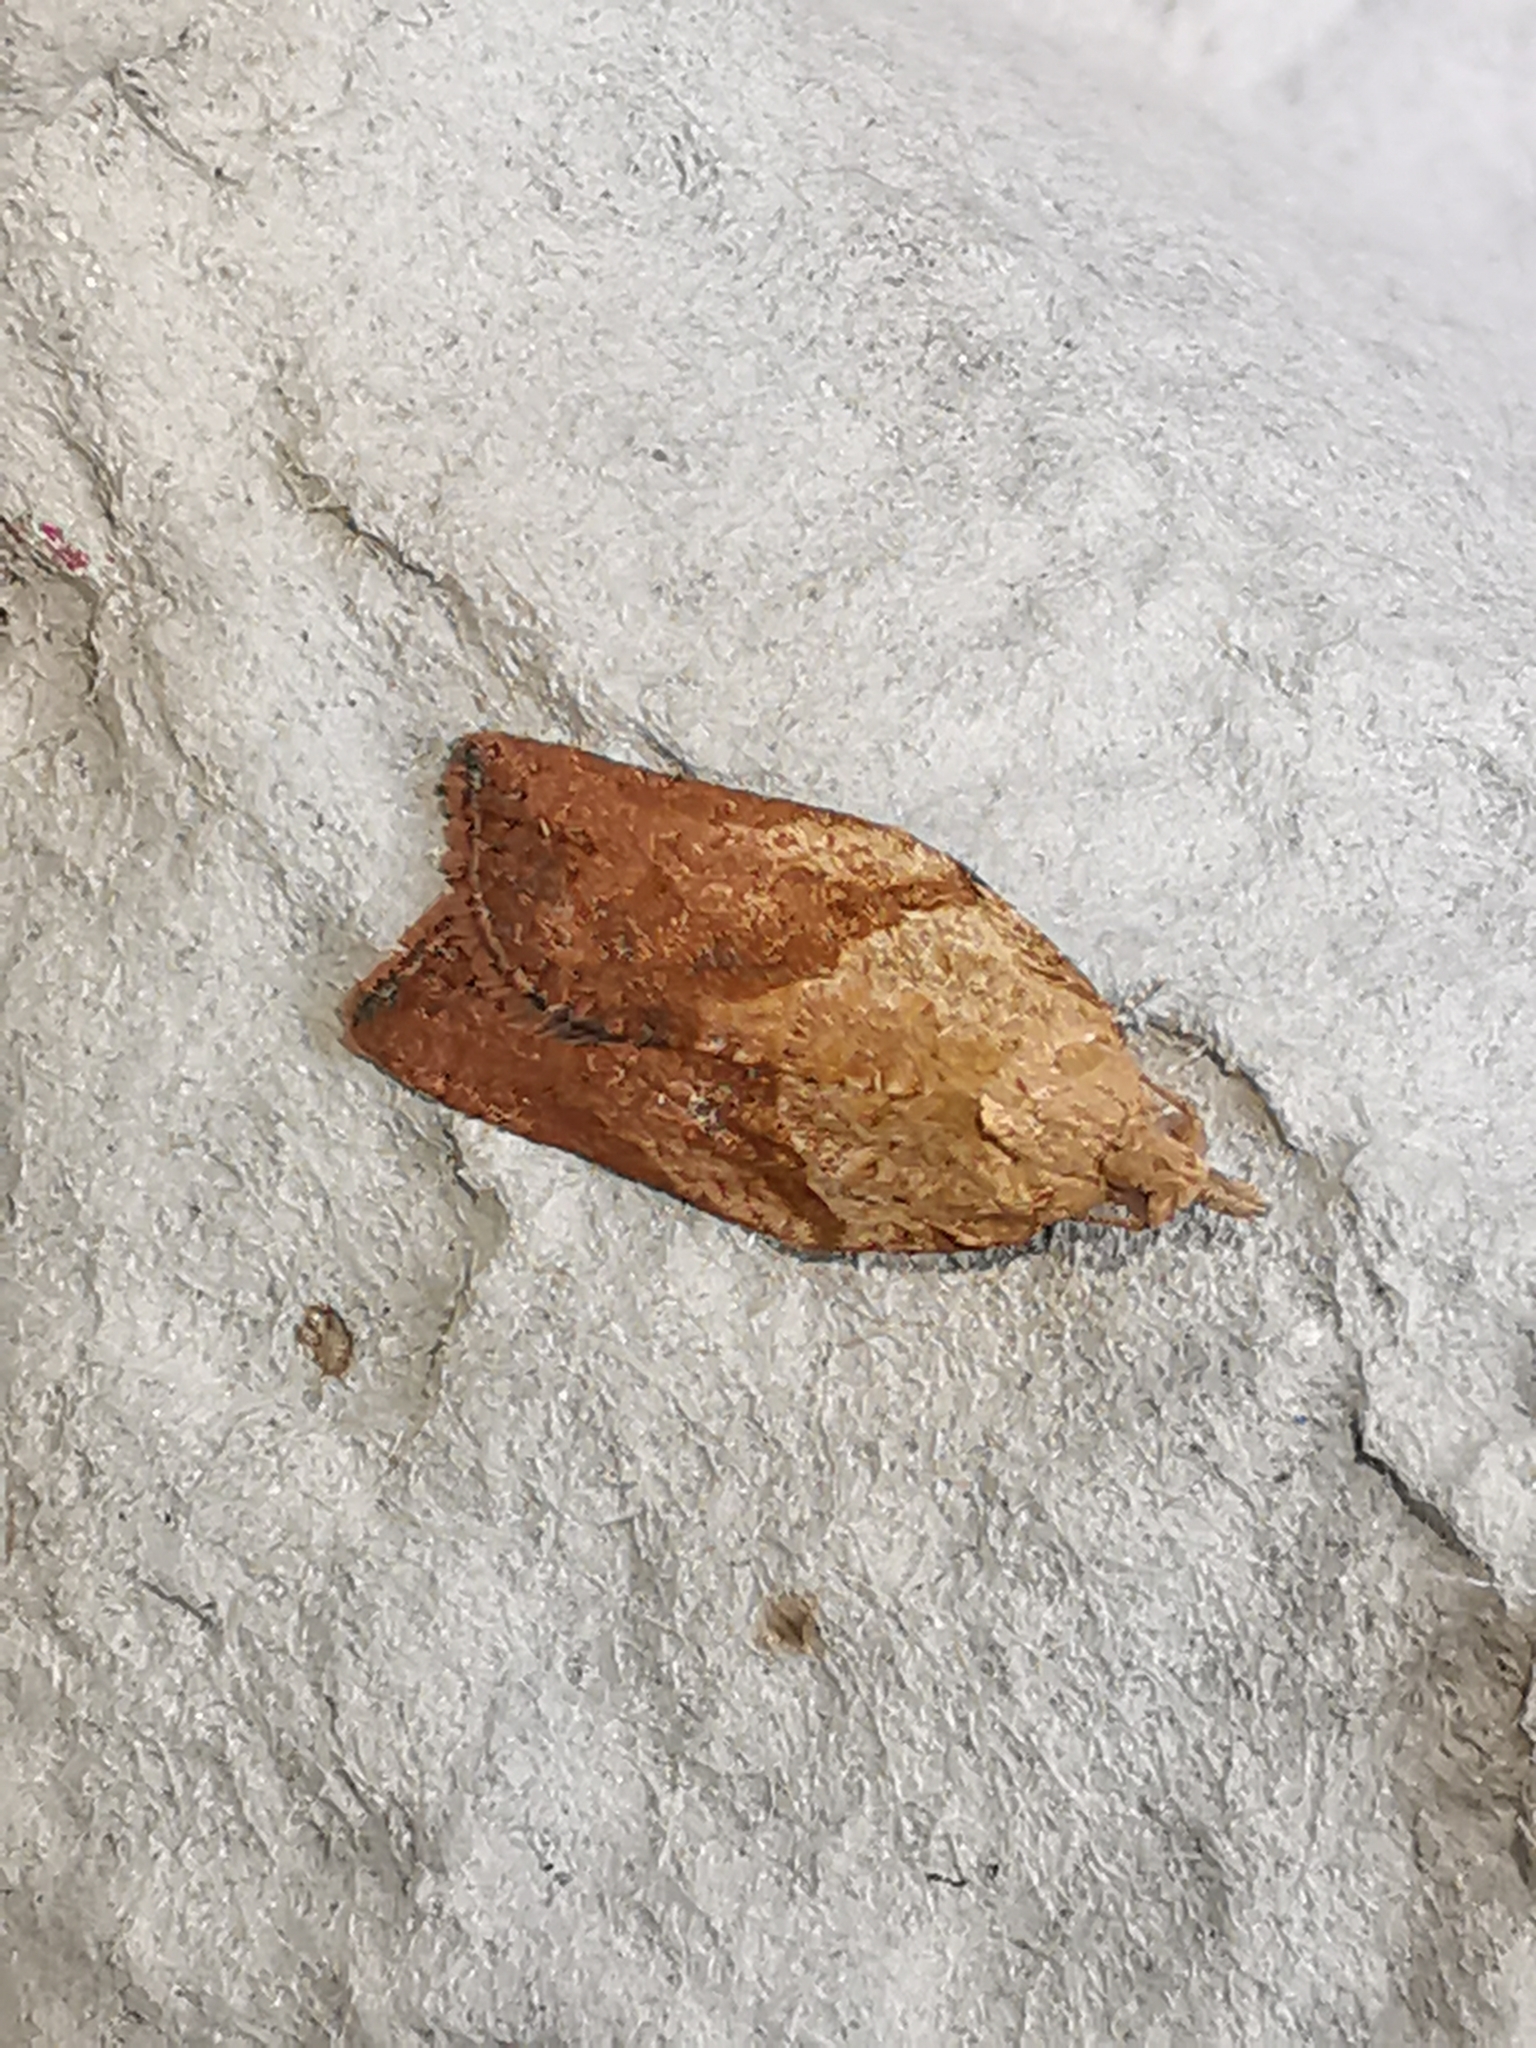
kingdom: Animalia
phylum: Arthropoda
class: Insecta
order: Lepidoptera
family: Tortricidae
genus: Epiphyas
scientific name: Epiphyas postvittana
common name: Light brown apple moth
